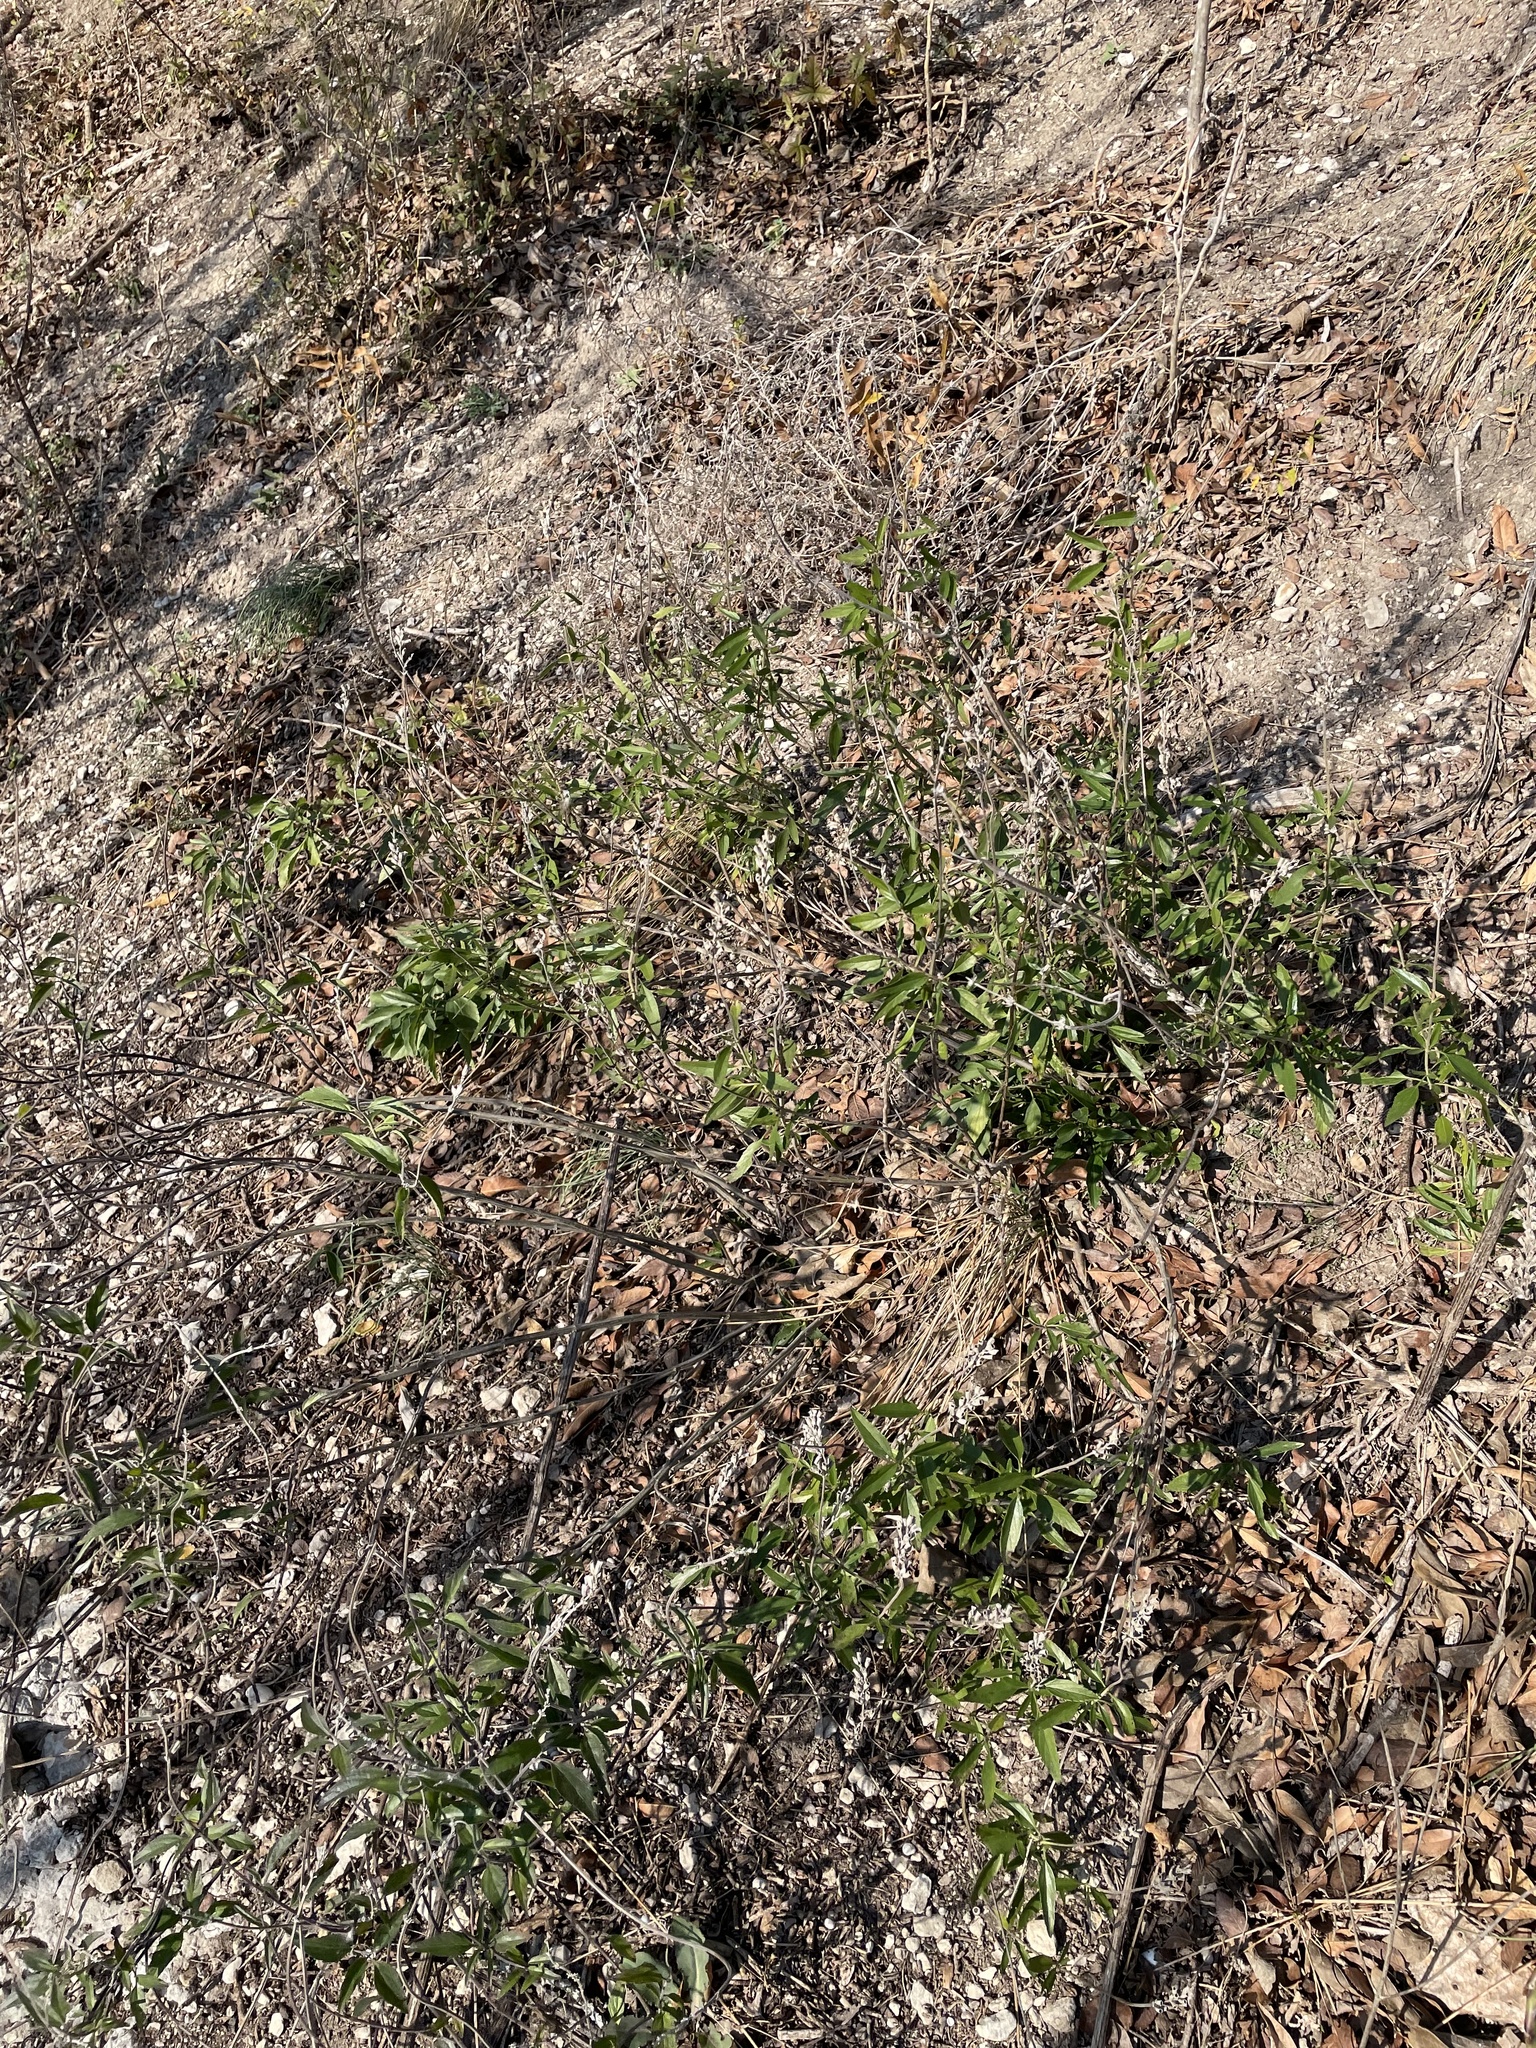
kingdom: Plantae
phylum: Tracheophyta
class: Magnoliopsida
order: Lamiales
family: Lamiaceae
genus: Salvia
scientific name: Salvia farinacea
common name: Mealy sage
